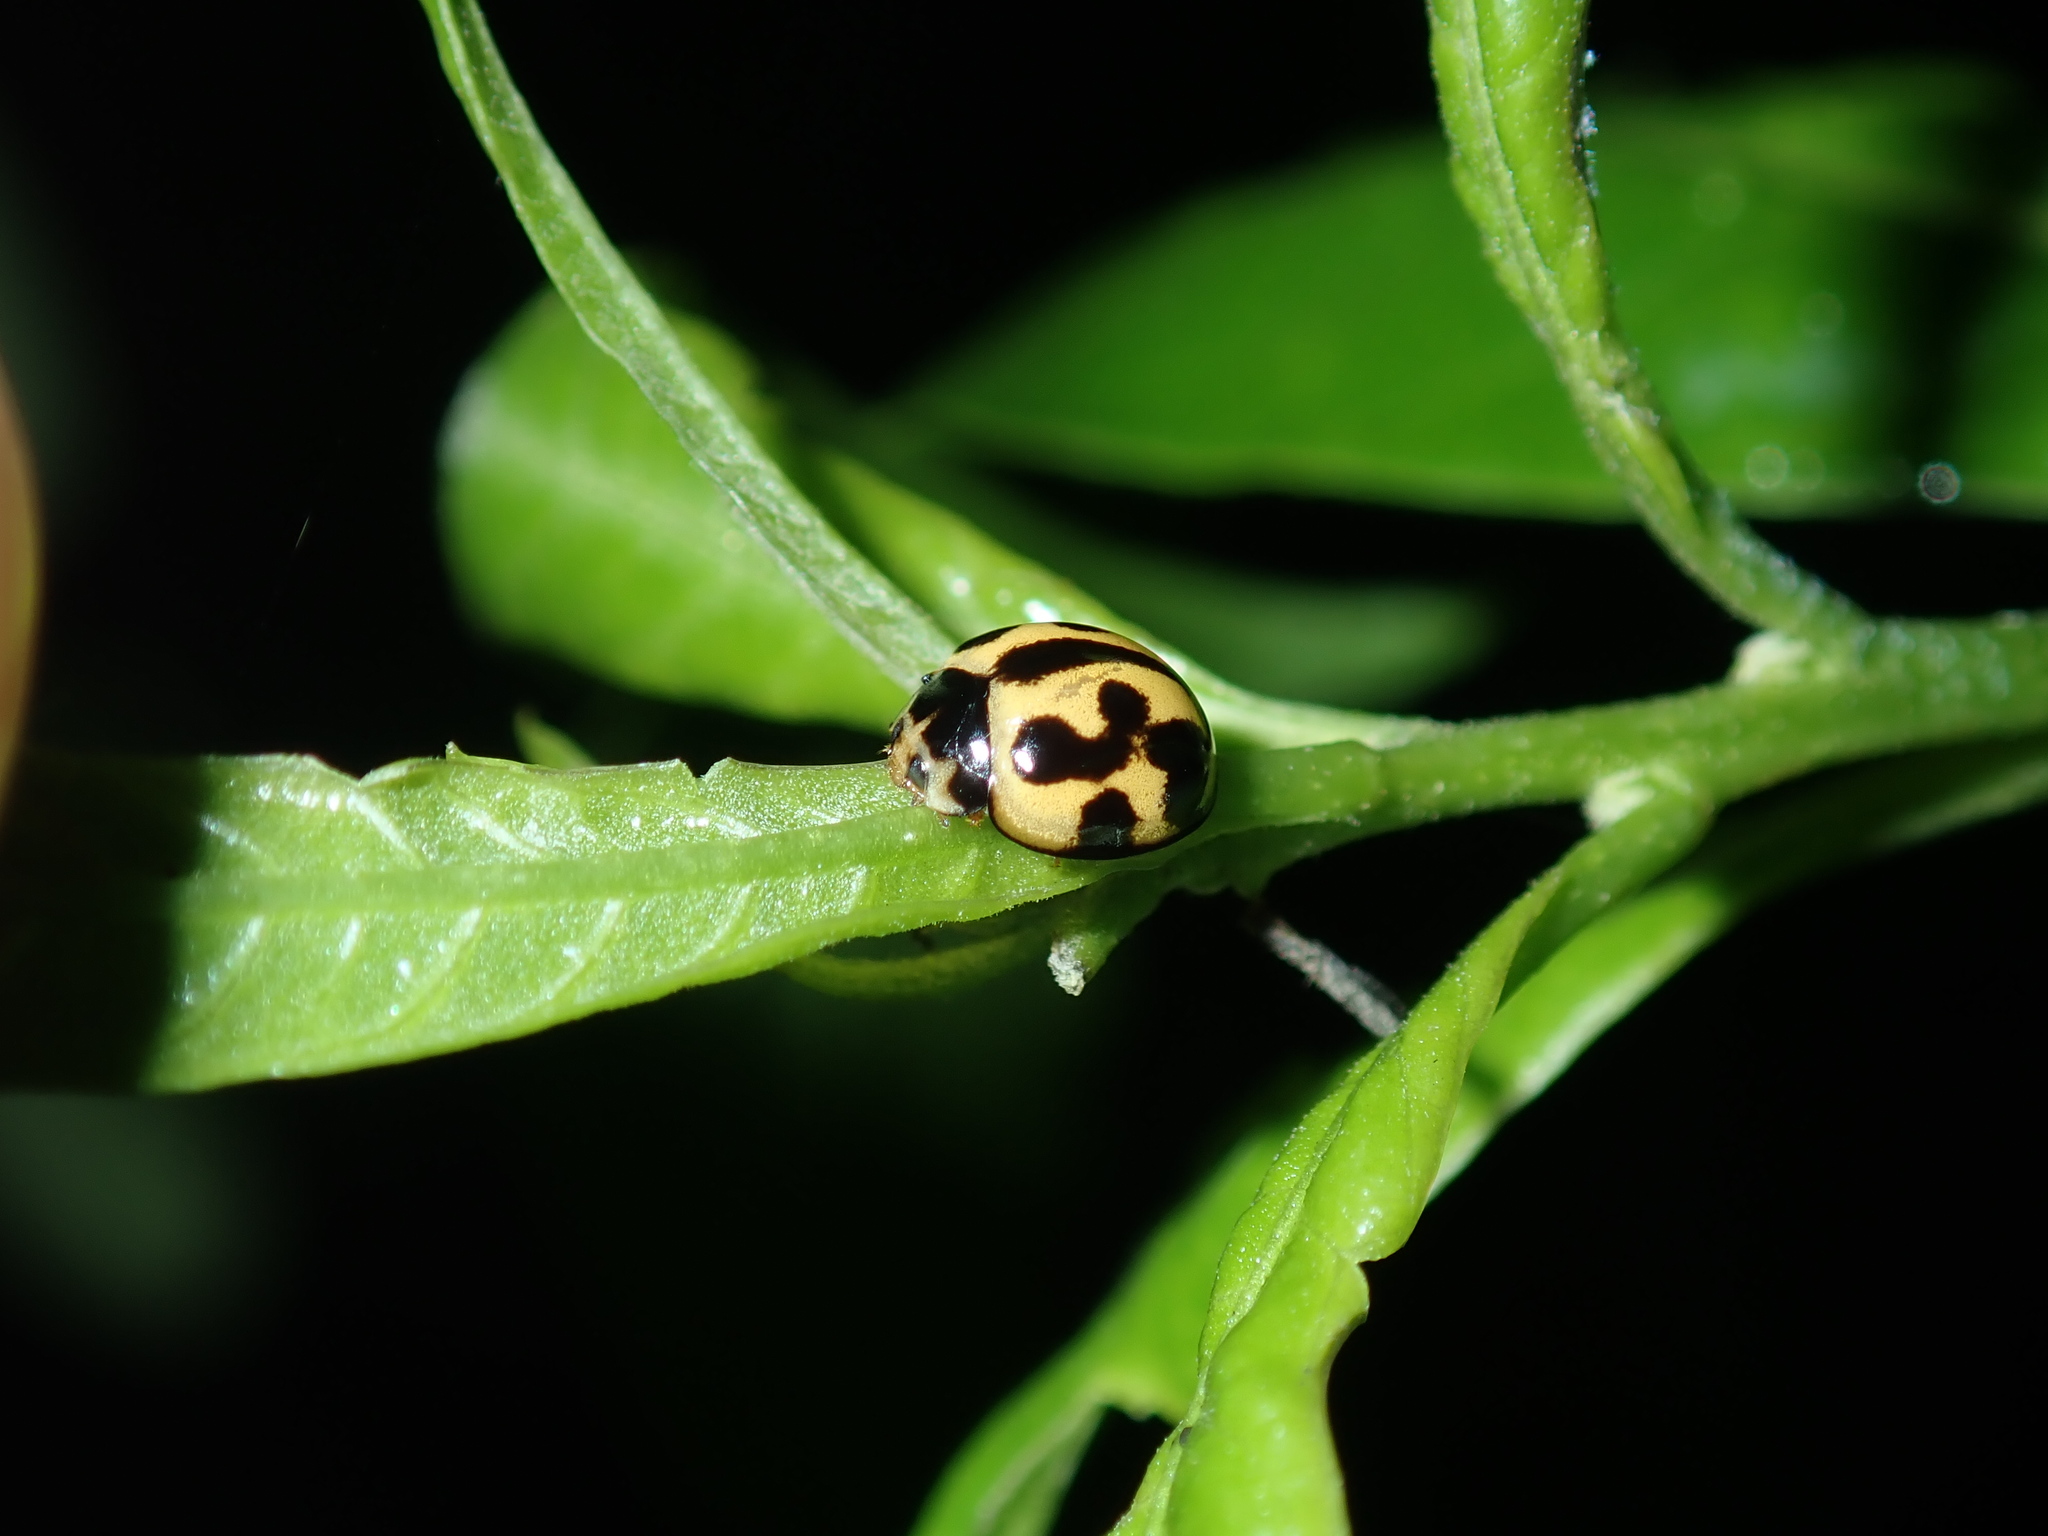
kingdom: Animalia
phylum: Arthropoda
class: Insecta
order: Coleoptera
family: Coccinellidae
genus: Coelophora
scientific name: Coelophora inaequalis
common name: Common australian lady beetle
